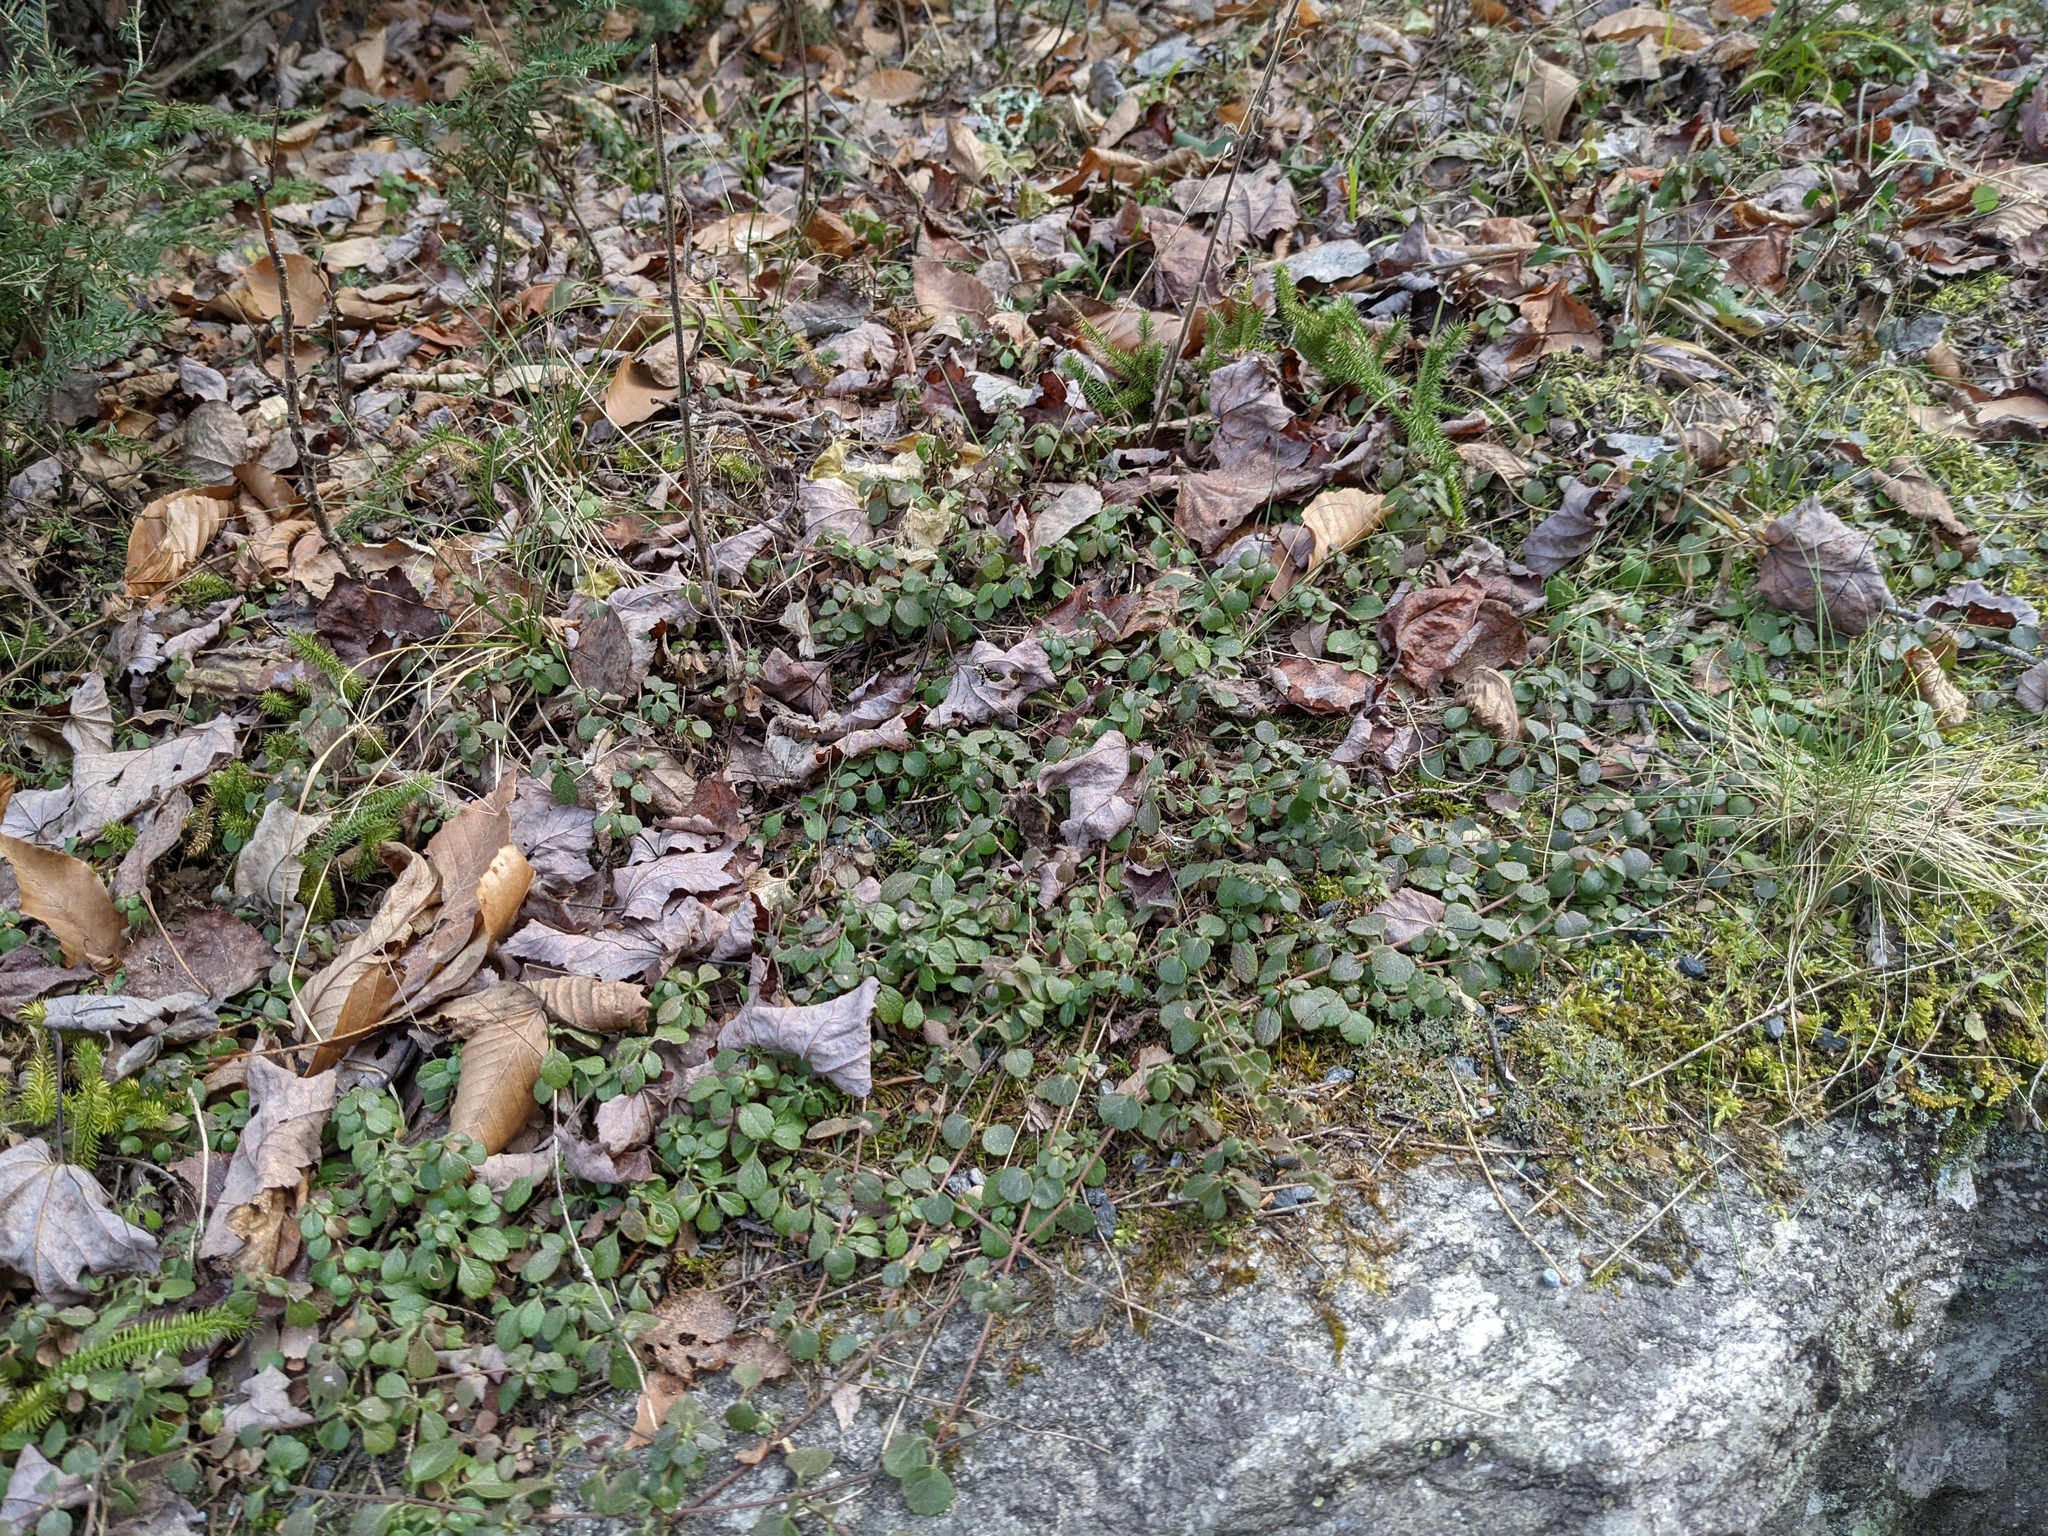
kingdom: Plantae
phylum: Tracheophyta
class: Magnoliopsida
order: Dipsacales
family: Caprifoliaceae
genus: Linnaea
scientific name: Linnaea borealis
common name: Twinflower
